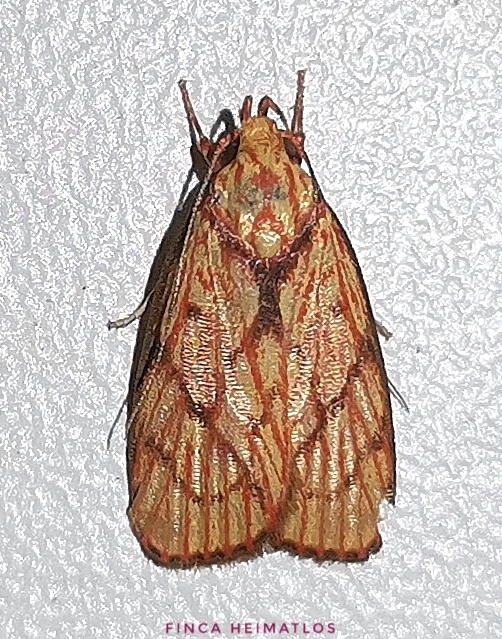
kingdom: Animalia
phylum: Arthropoda
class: Insecta
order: Lepidoptera
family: Peleopodidae
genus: Machimia
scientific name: Machimia
